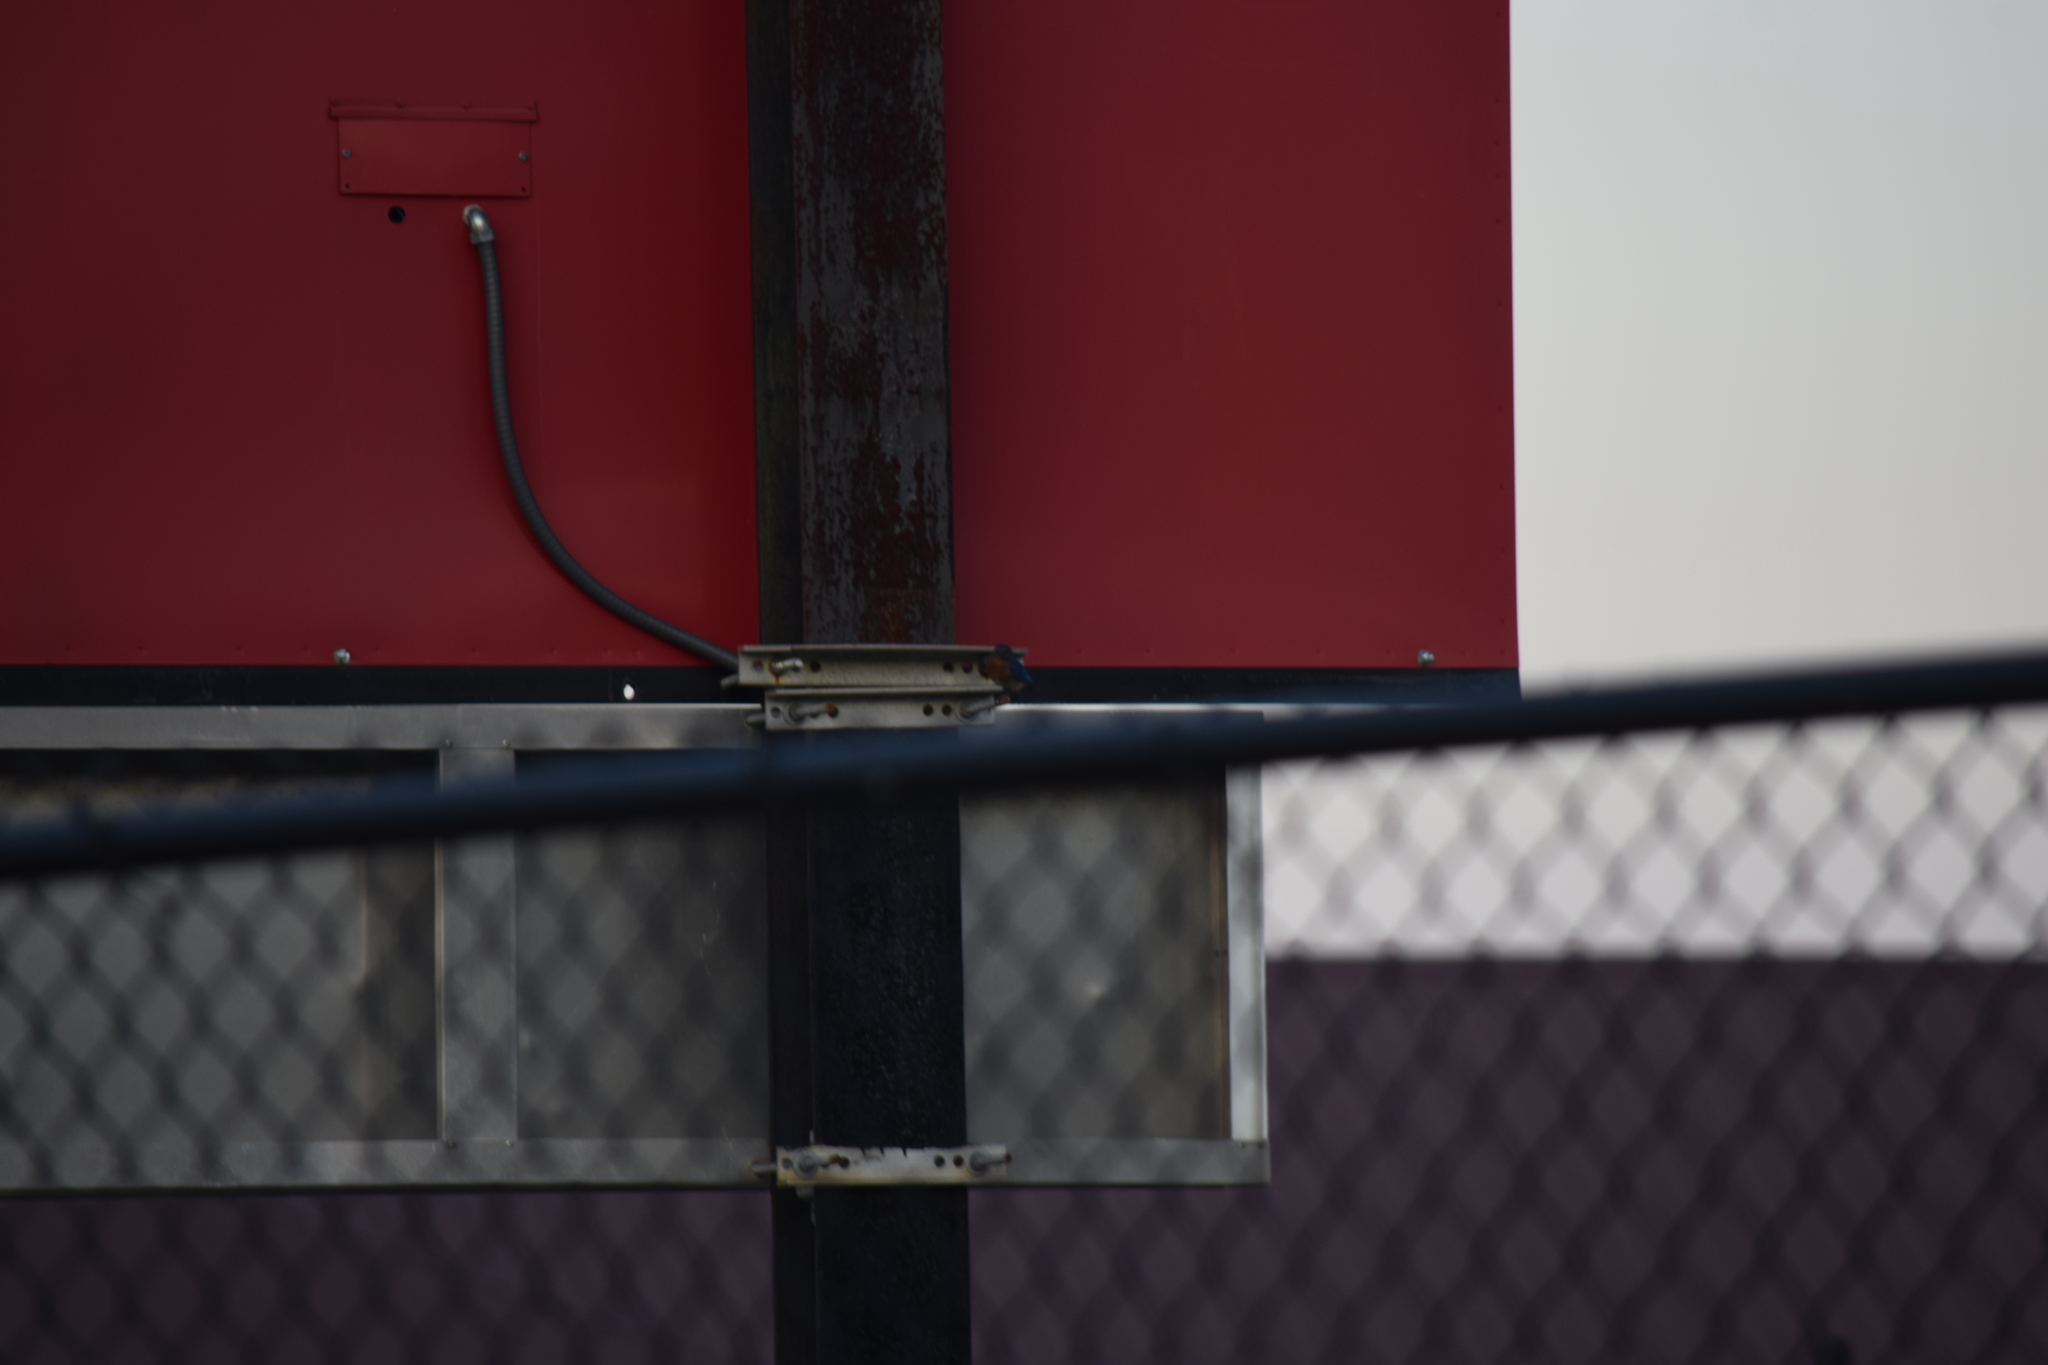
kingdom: Animalia
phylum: Chordata
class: Aves
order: Passeriformes
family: Turdidae
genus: Sialia
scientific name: Sialia sialis
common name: Eastern bluebird
